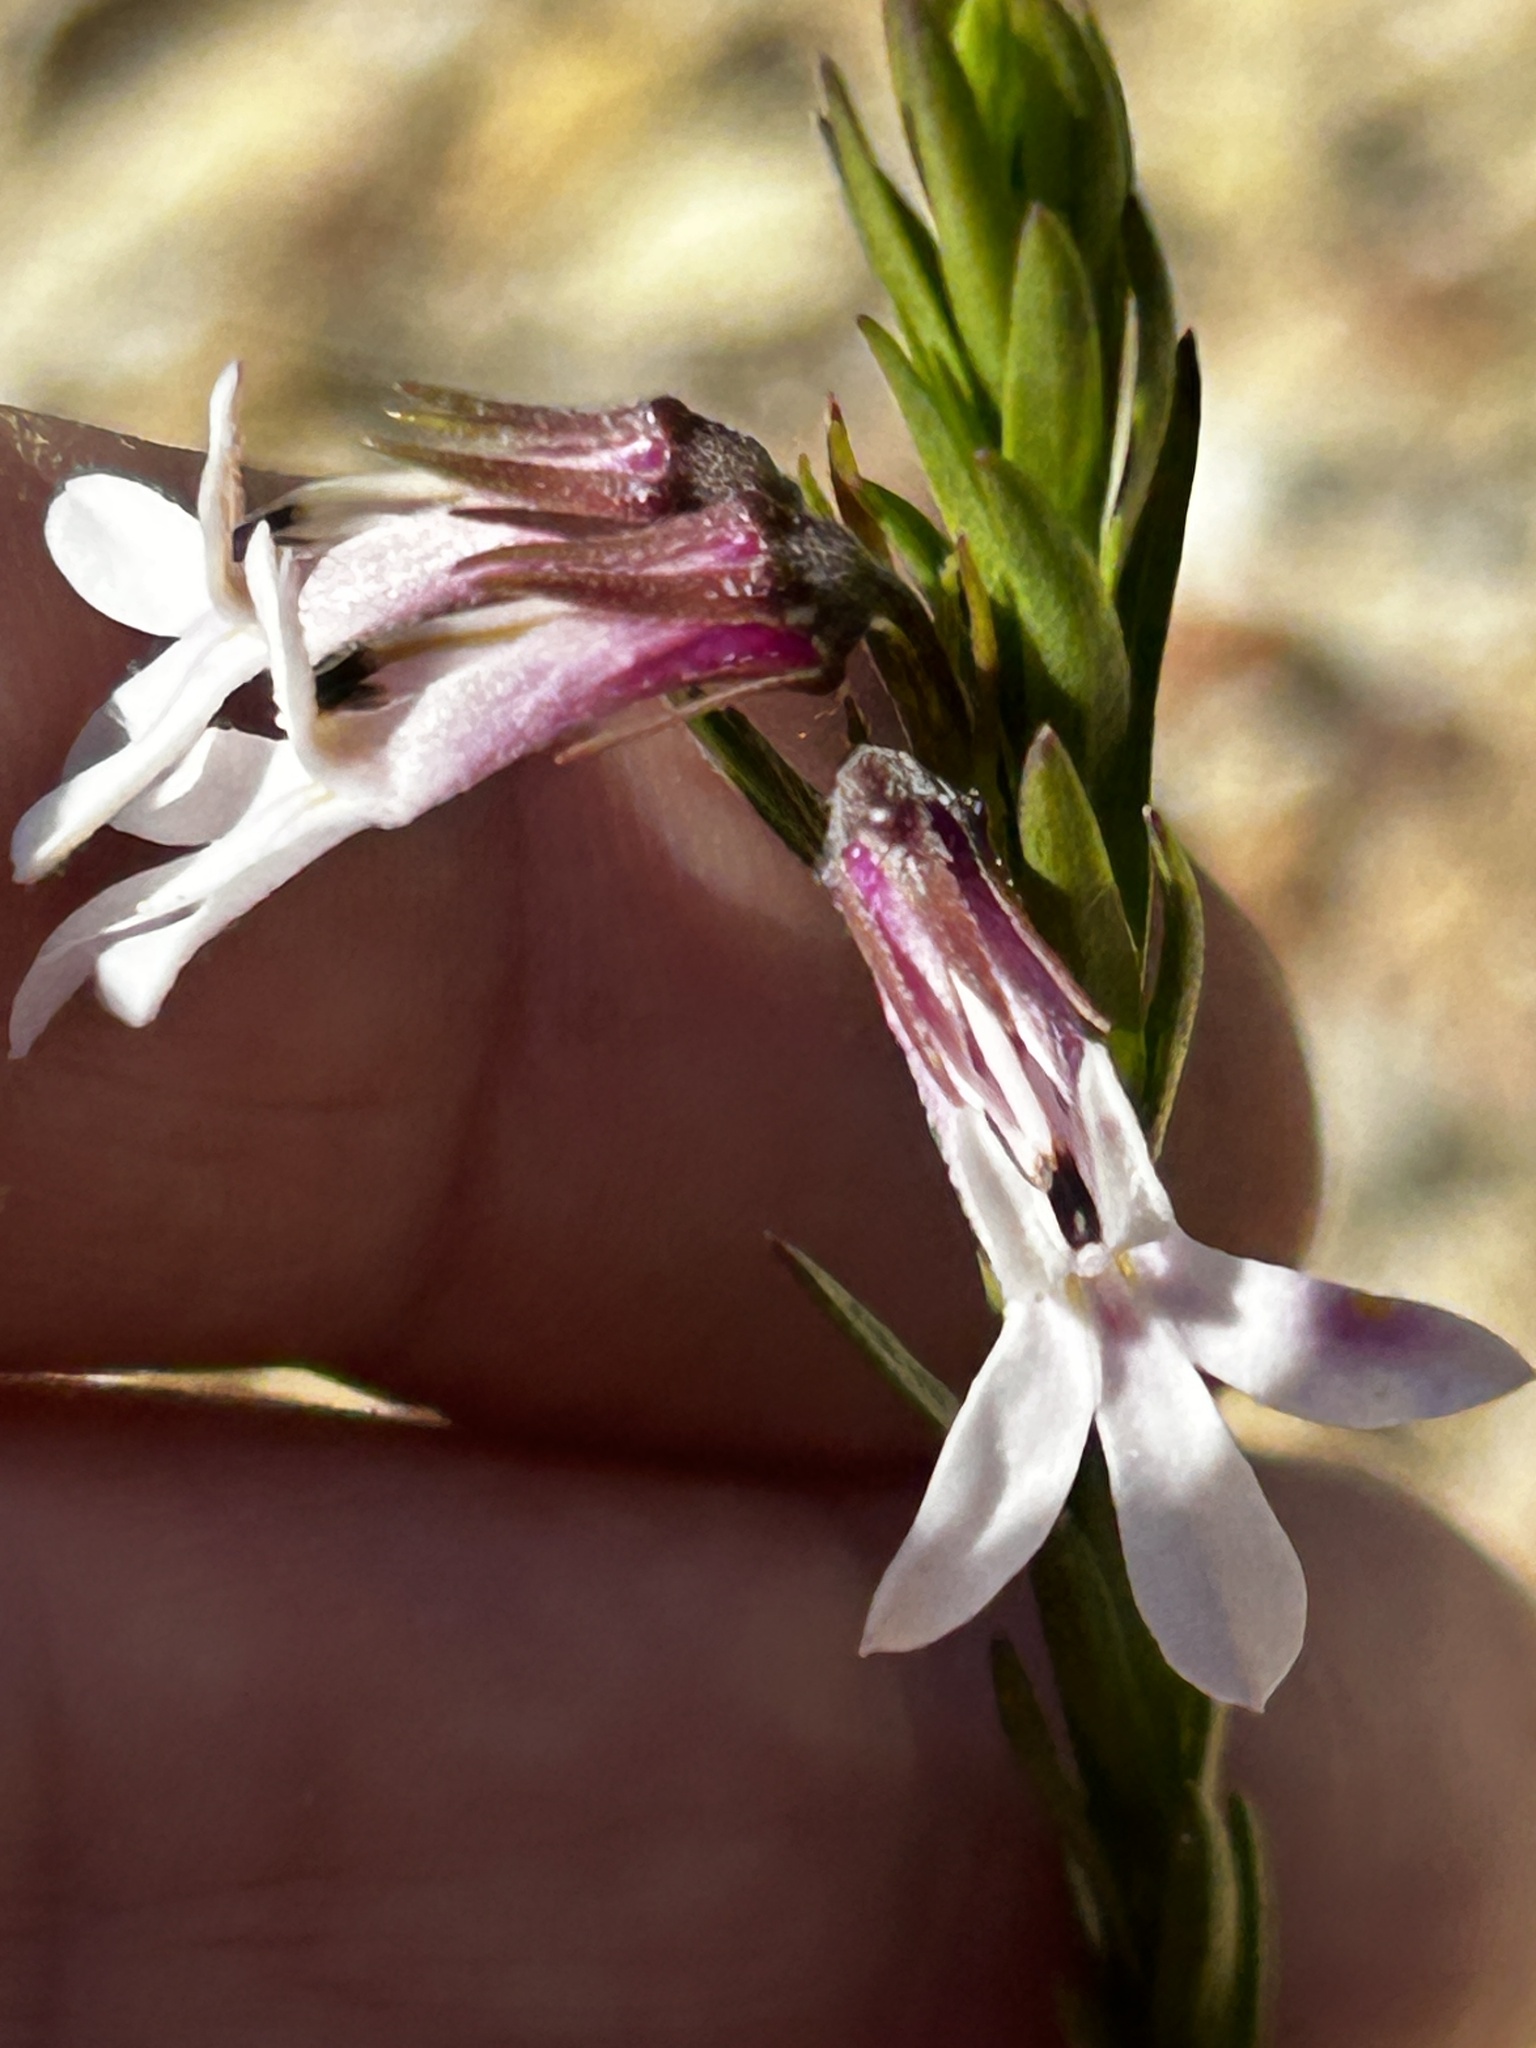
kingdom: Plantae
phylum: Tracheophyta
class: Magnoliopsida
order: Asterales
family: Campanulaceae
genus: Lobelia
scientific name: Lobelia pinifolia
